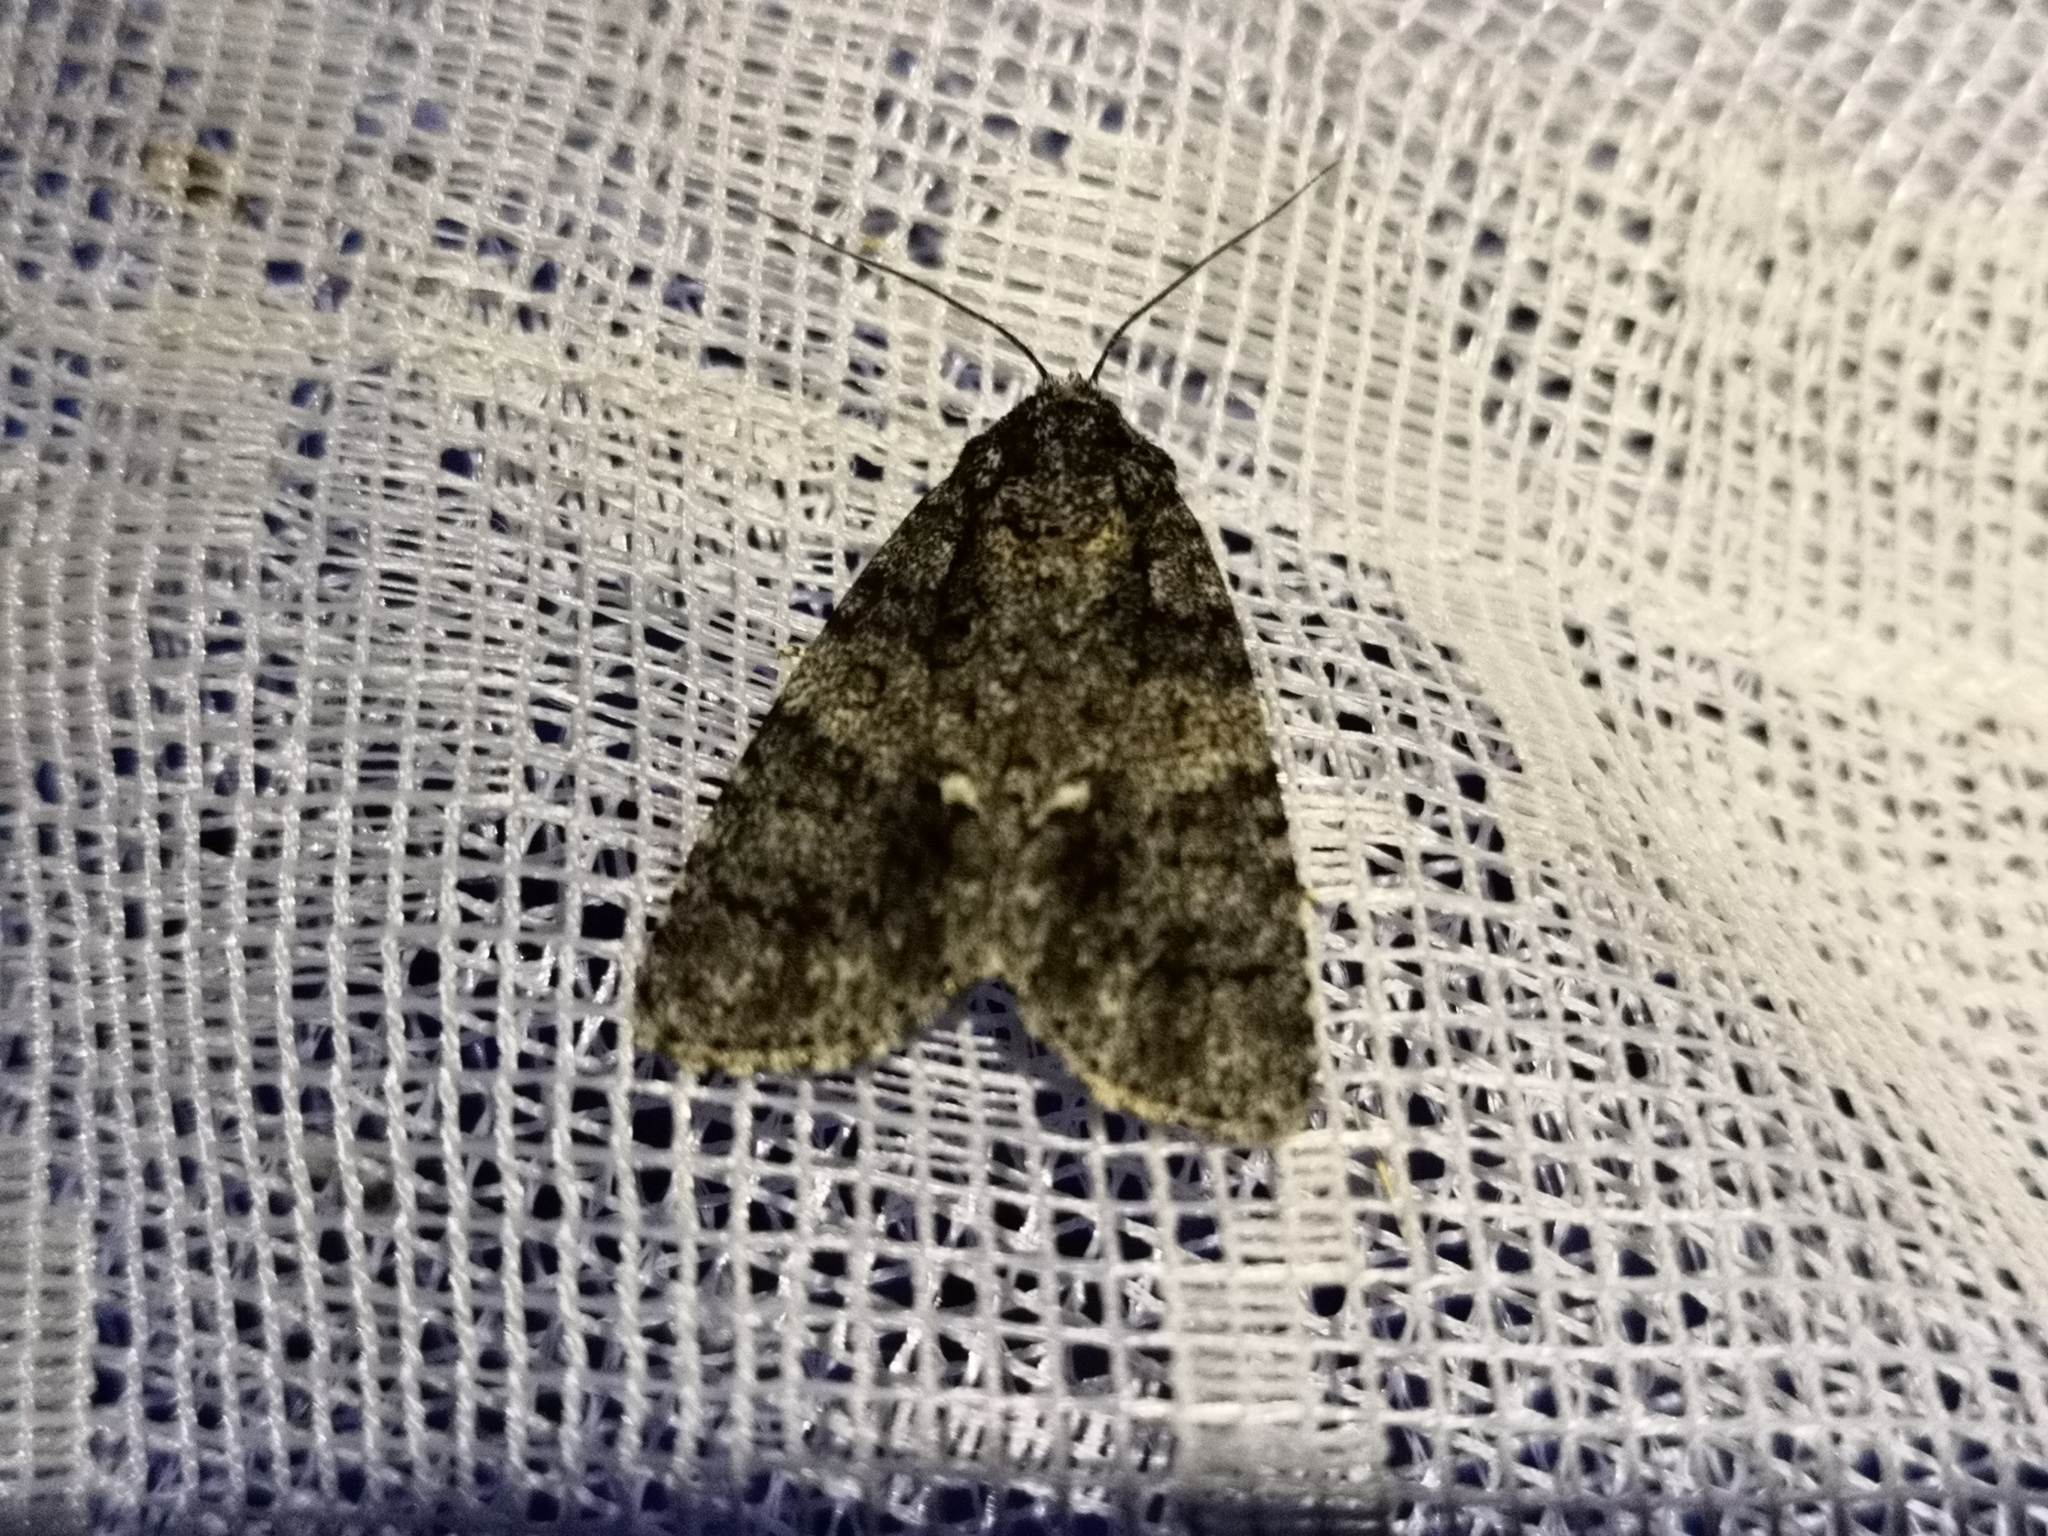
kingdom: Animalia
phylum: Arthropoda
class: Insecta
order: Lepidoptera
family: Noctuidae
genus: Acronicta
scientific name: Acronicta rumicis
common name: Knot grass
